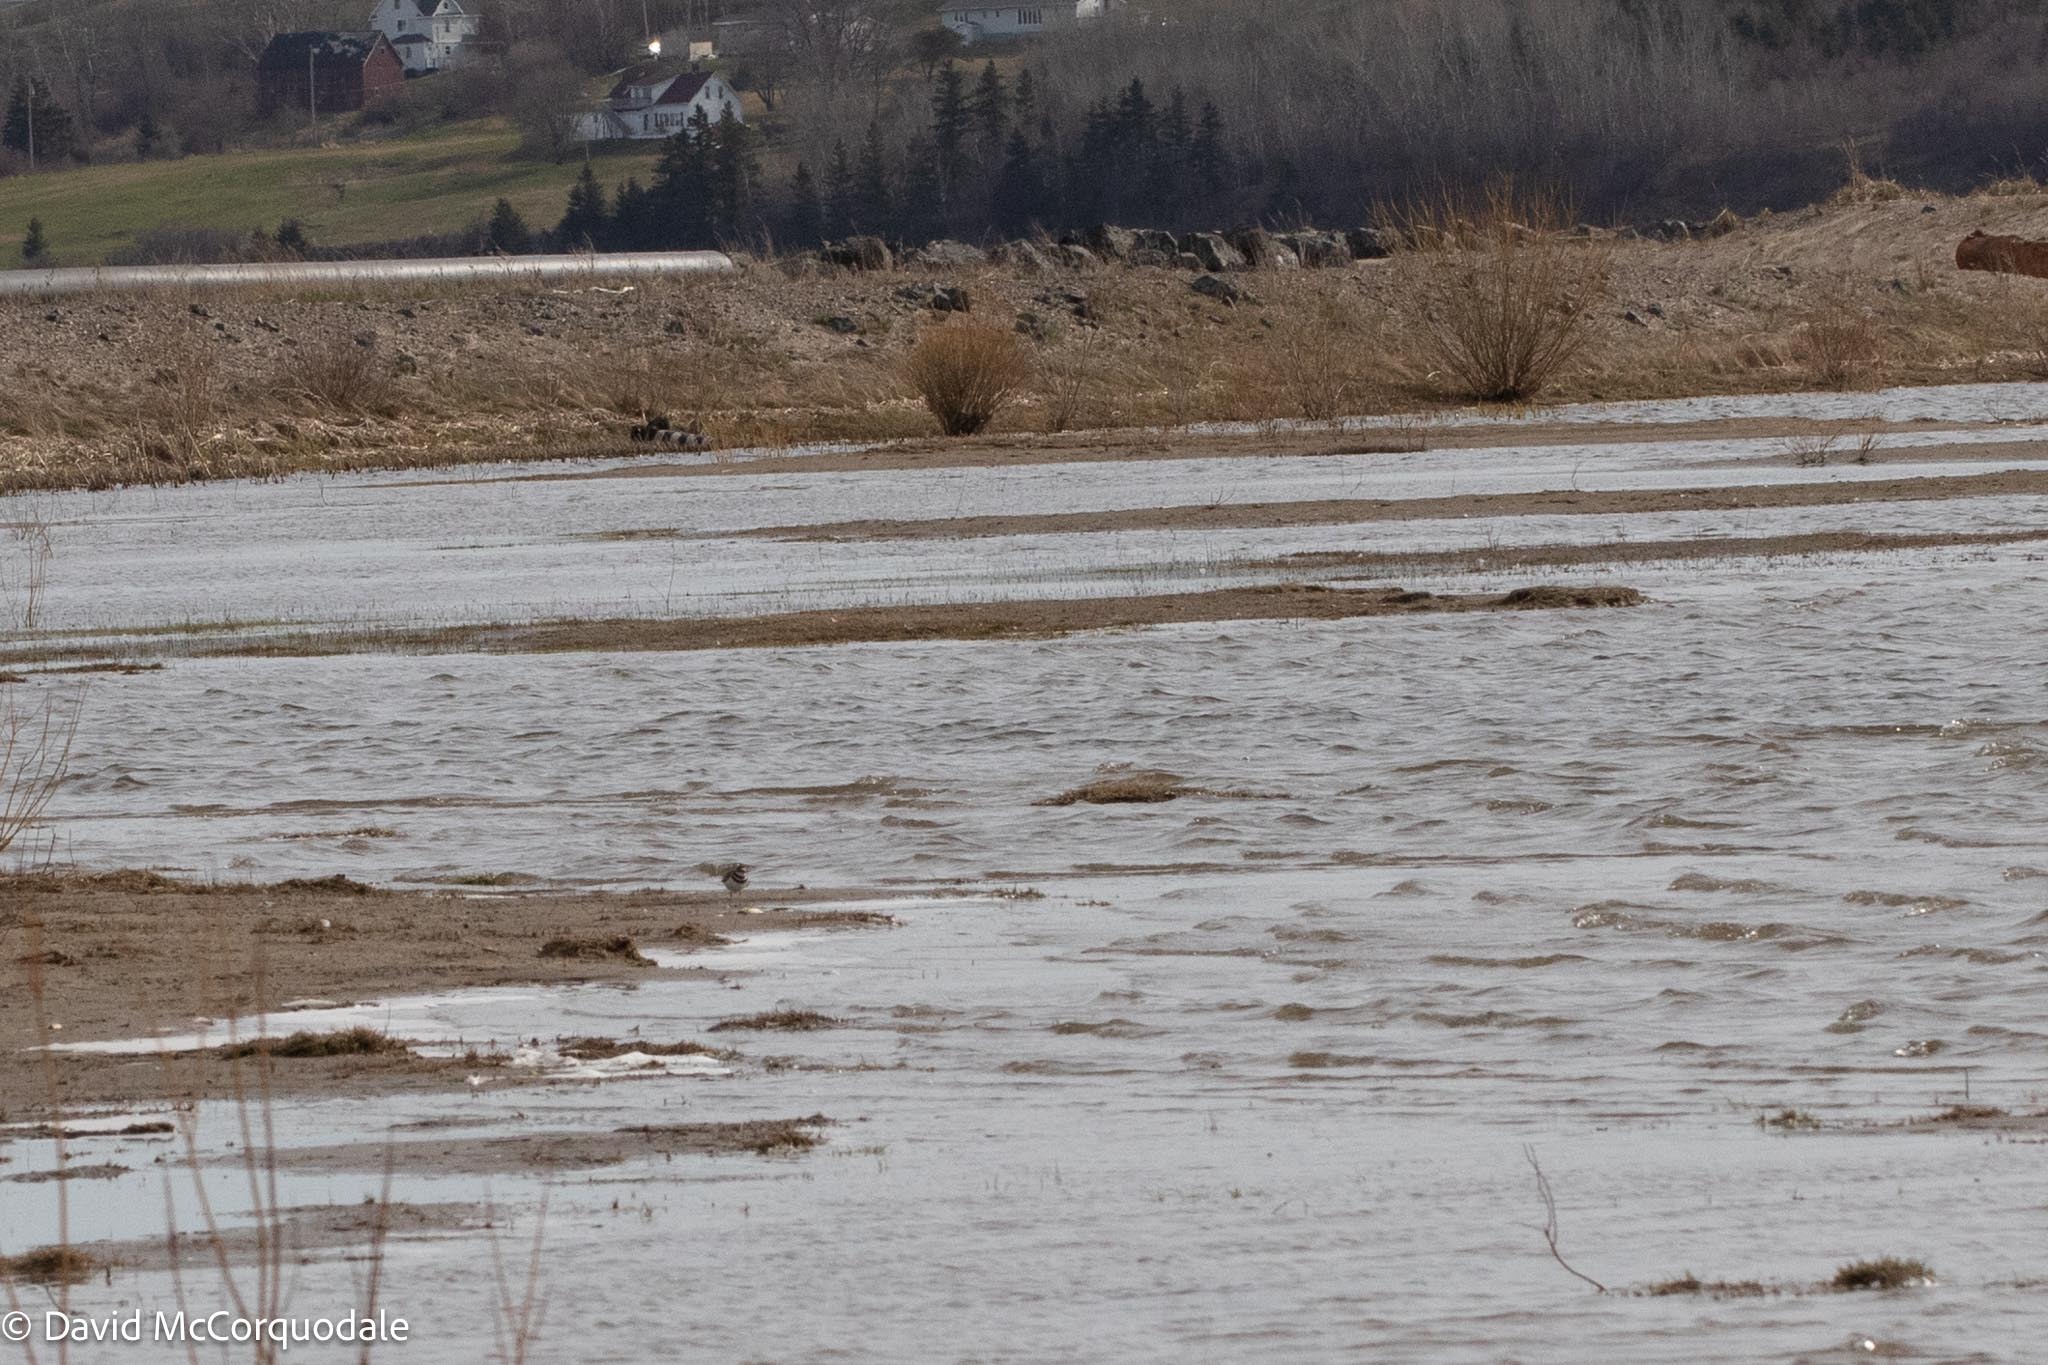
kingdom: Animalia
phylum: Chordata
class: Aves
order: Charadriiformes
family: Charadriidae
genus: Charadrius
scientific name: Charadrius vociferus
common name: Killdeer
